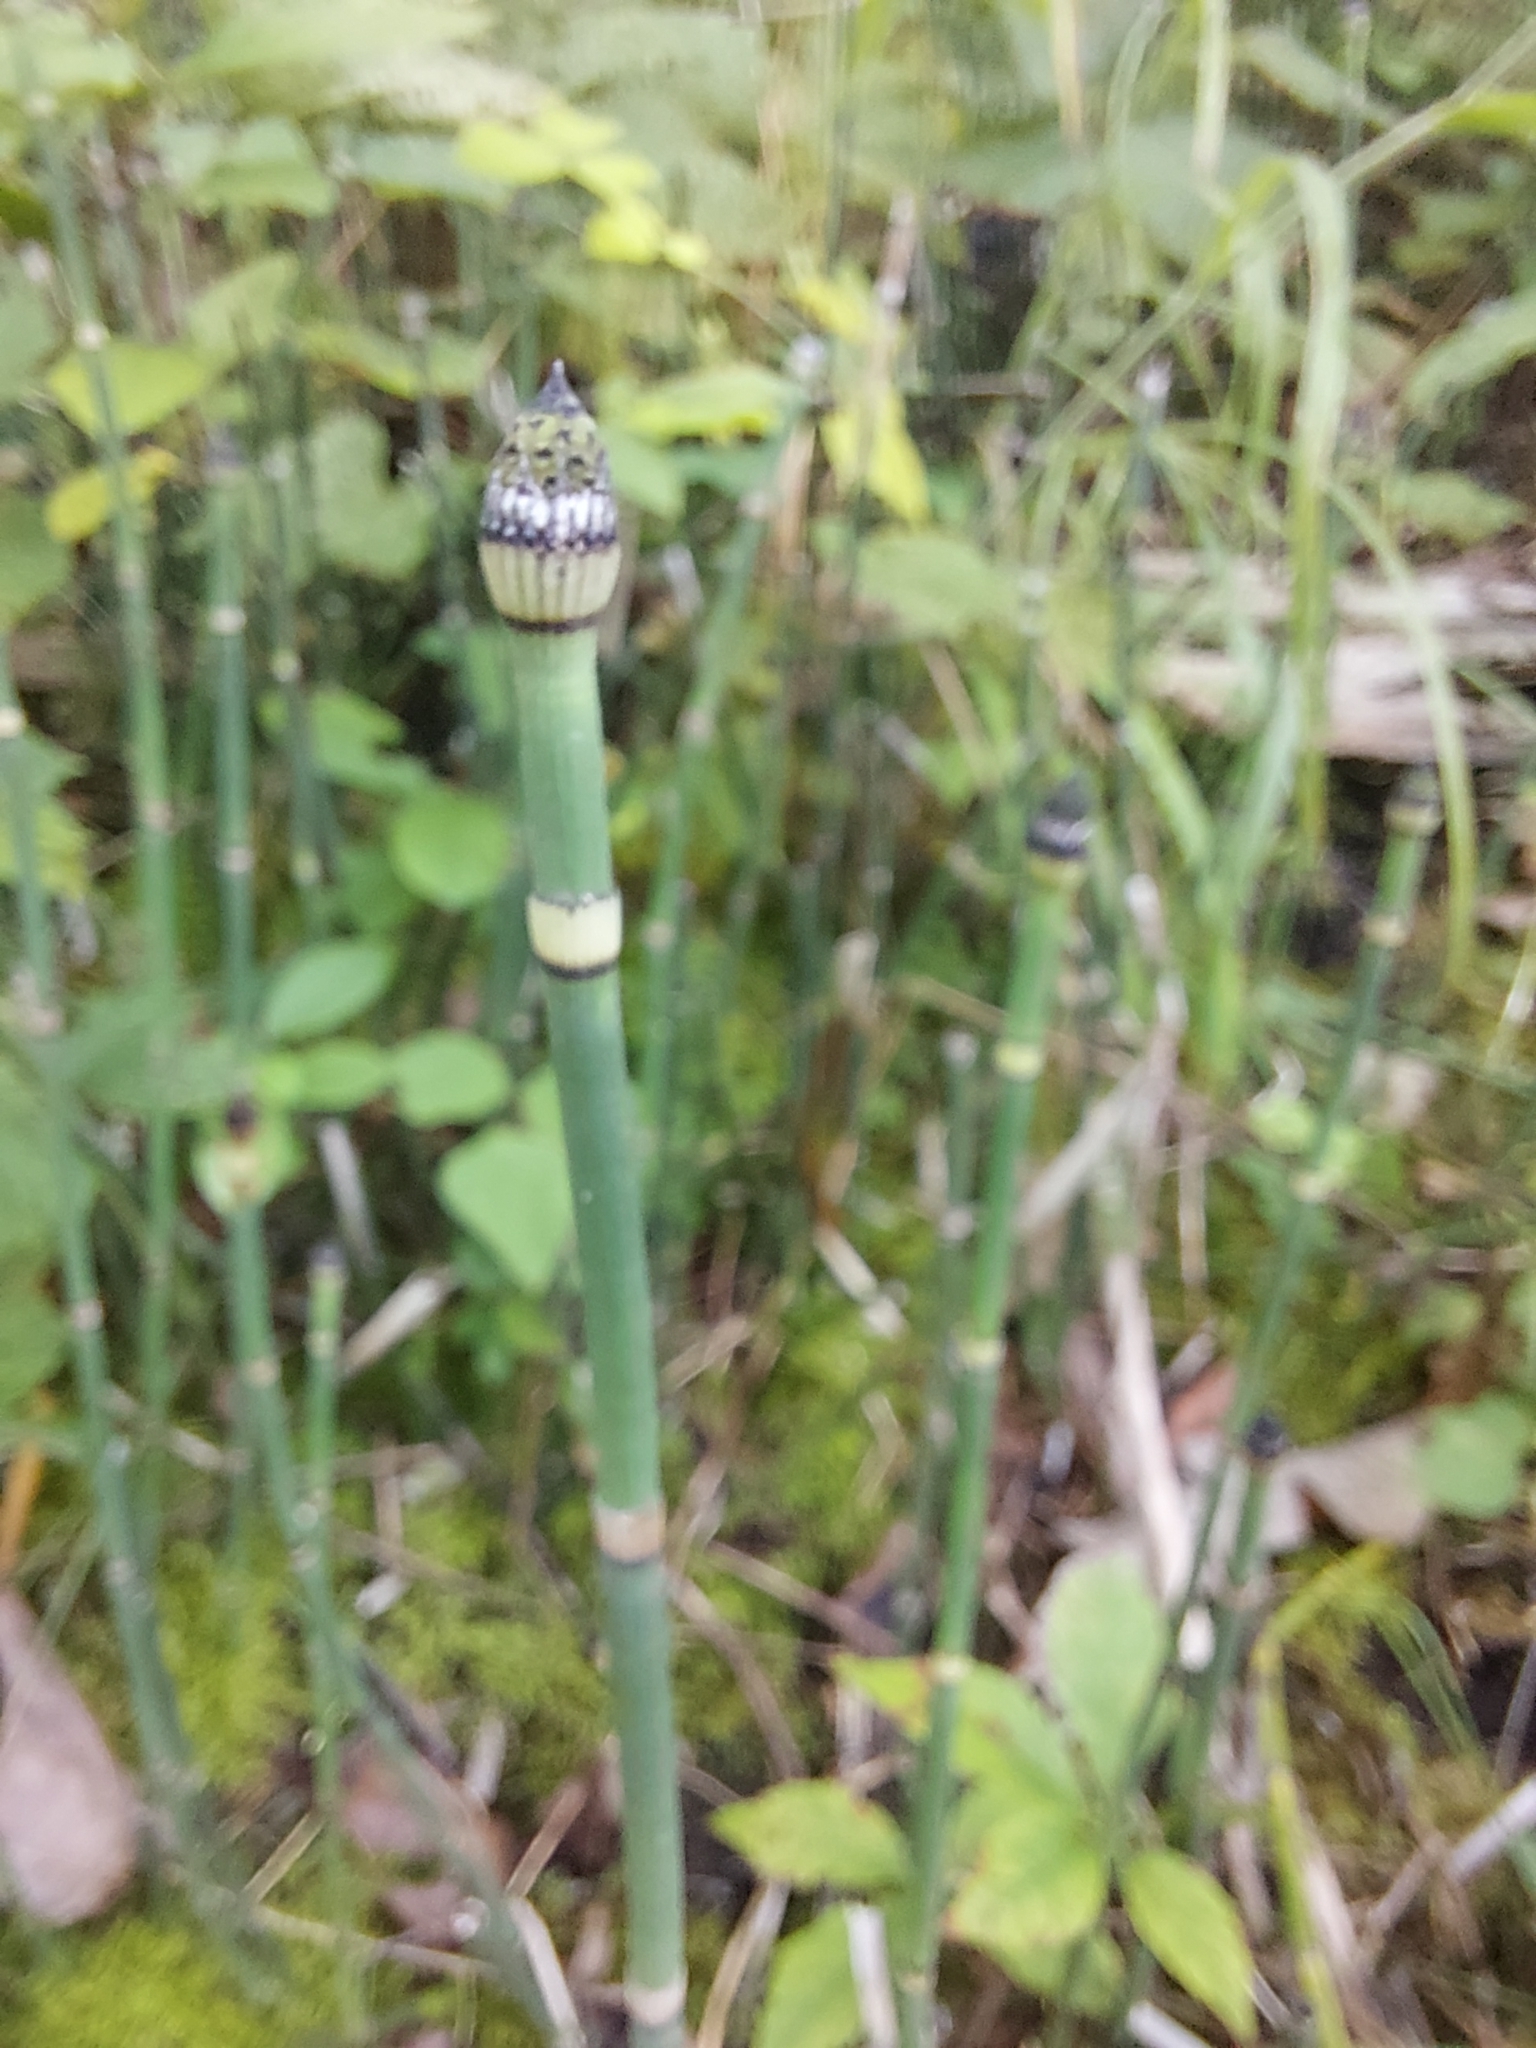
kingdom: Plantae
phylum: Tracheophyta
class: Polypodiopsida
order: Equisetales
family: Equisetaceae
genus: Equisetum
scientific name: Equisetum hyemale
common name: Rough horsetail
